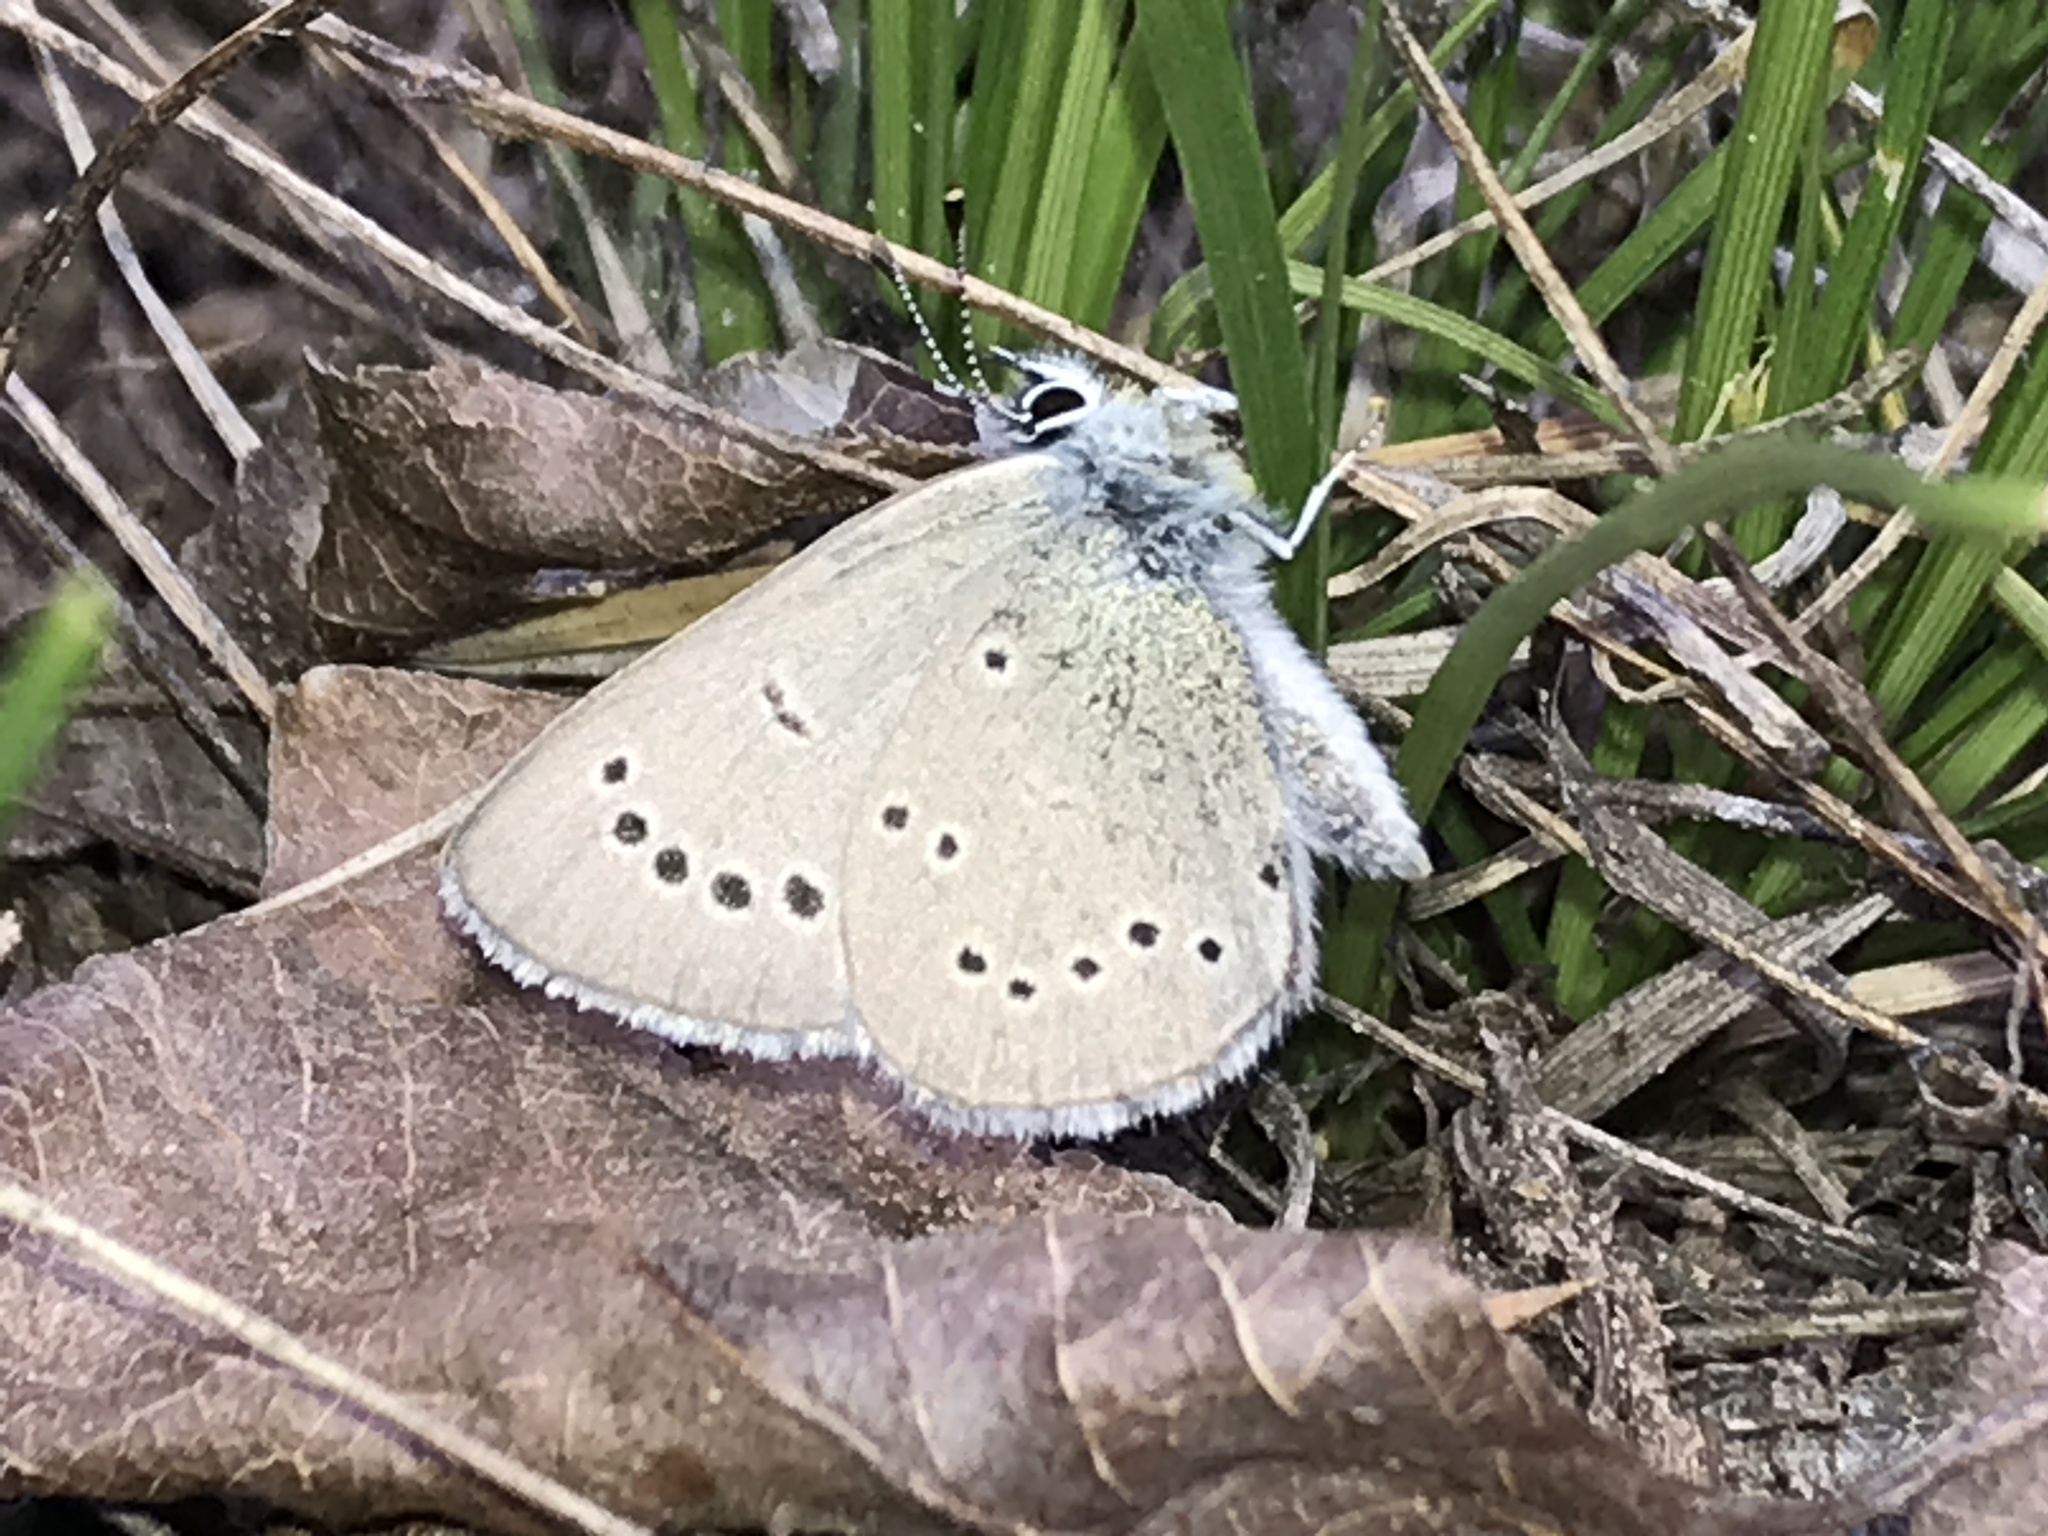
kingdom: Animalia
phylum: Arthropoda
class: Insecta
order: Lepidoptera
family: Lycaenidae
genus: Glaucopsyche
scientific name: Glaucopsyche lygdamus
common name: Silvery blue
